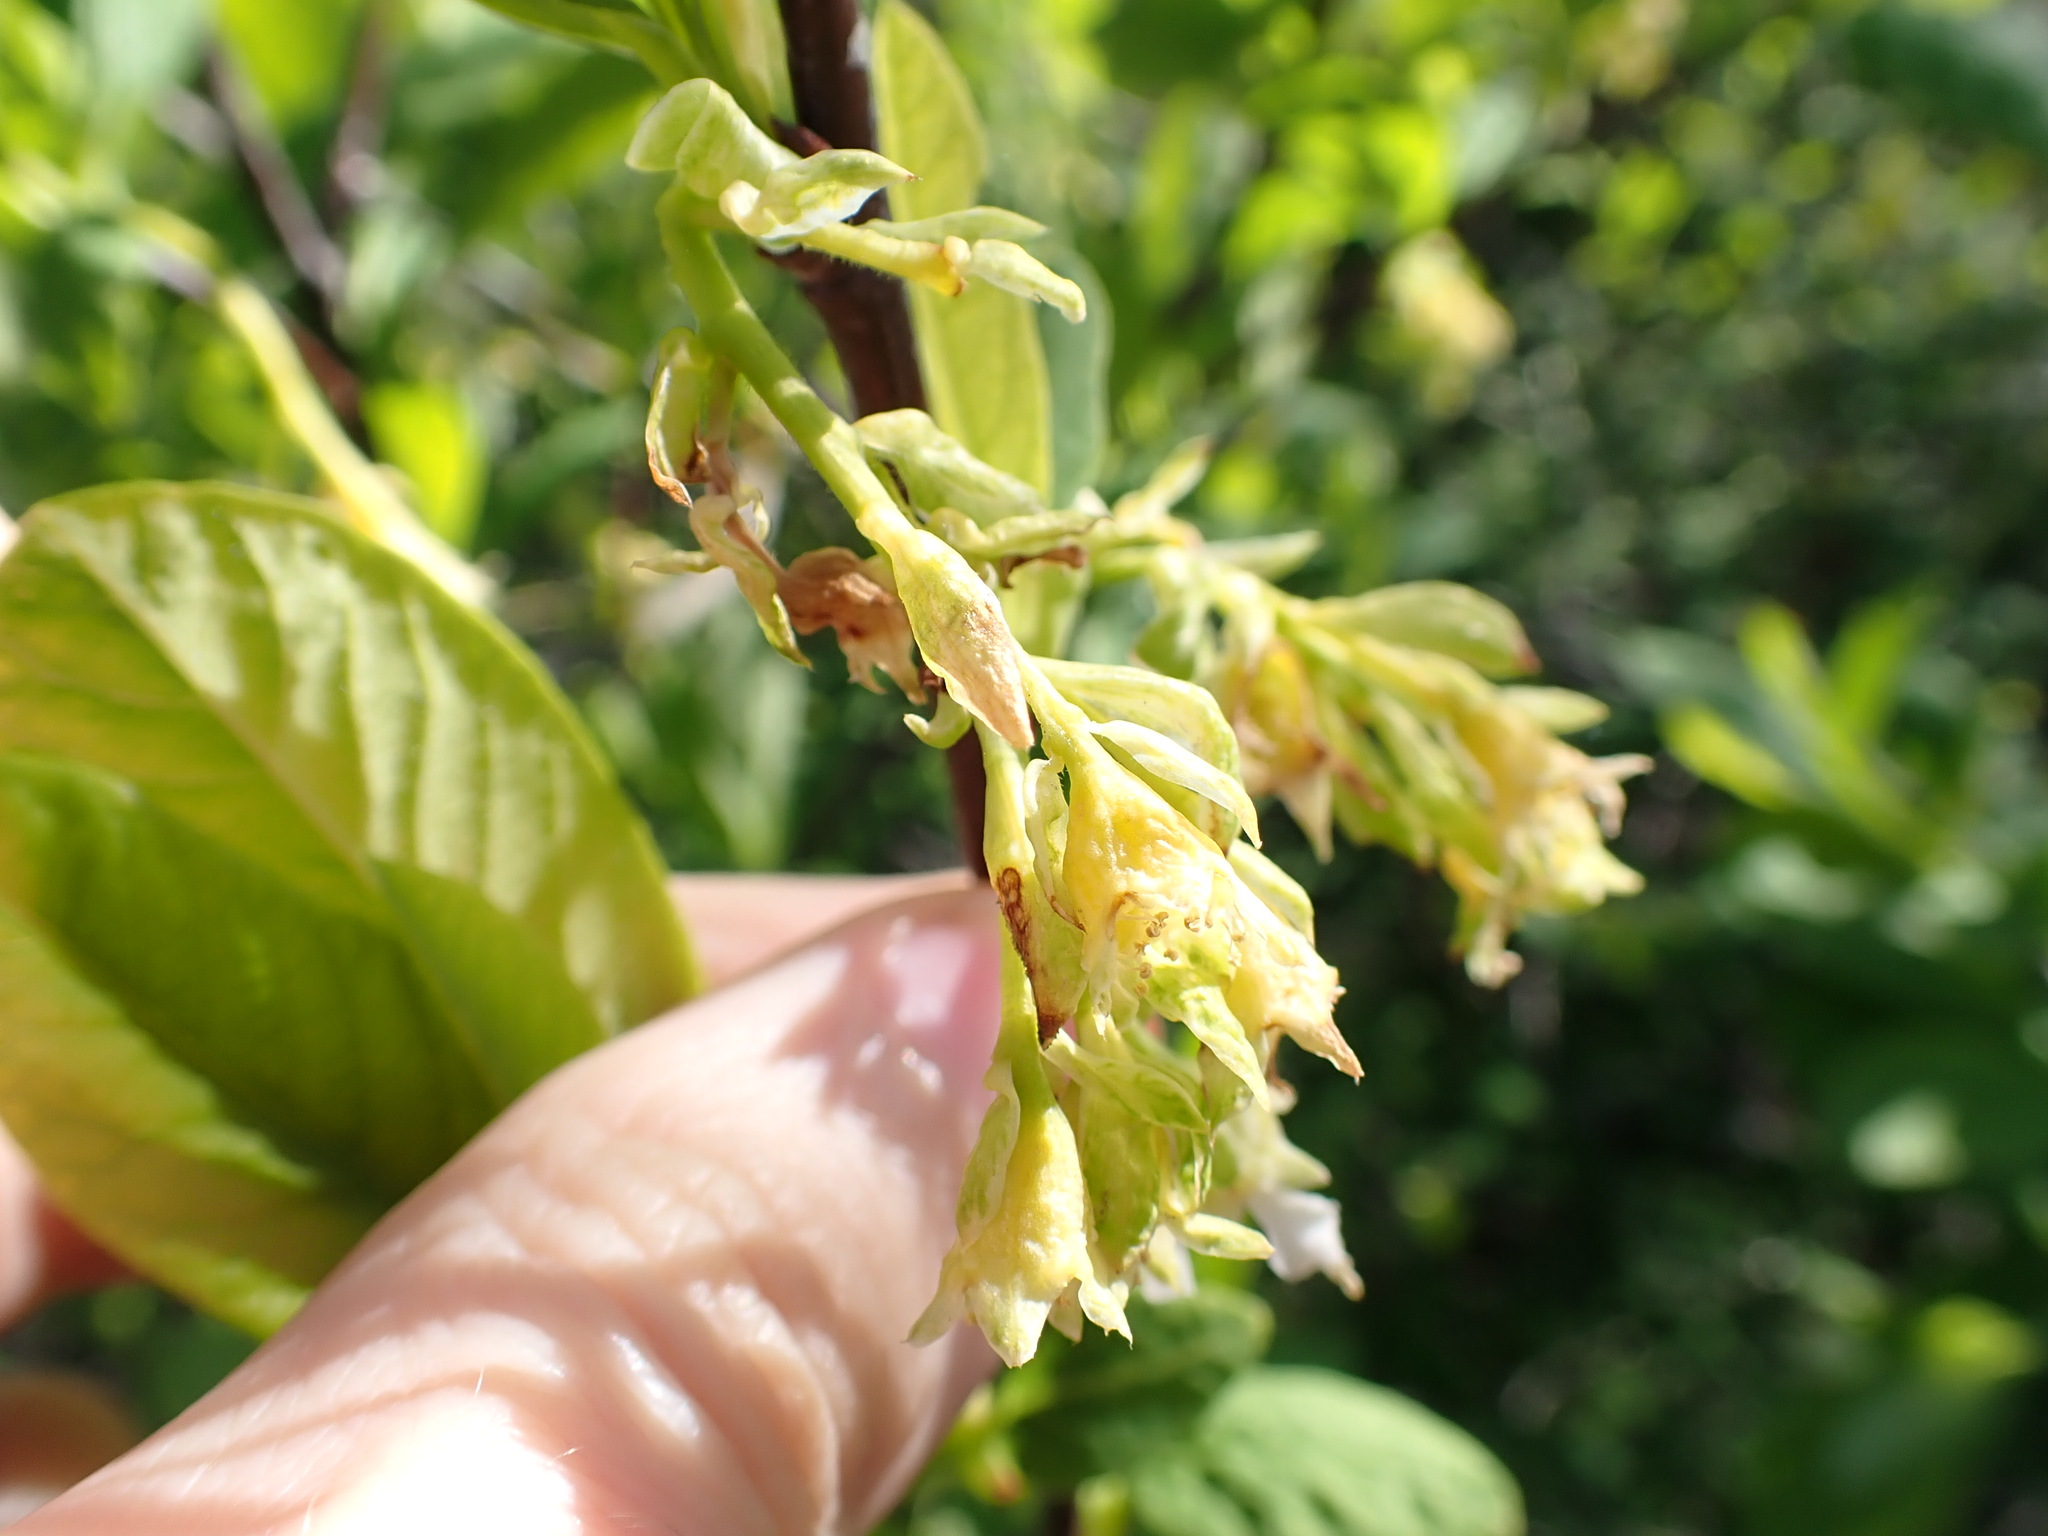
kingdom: Plantae
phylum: Tracheophyta
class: Magnoliopsida
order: Rosales
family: Rosaceae
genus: Oemleria
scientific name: Oemleria cerasiformis
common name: Osoberry
